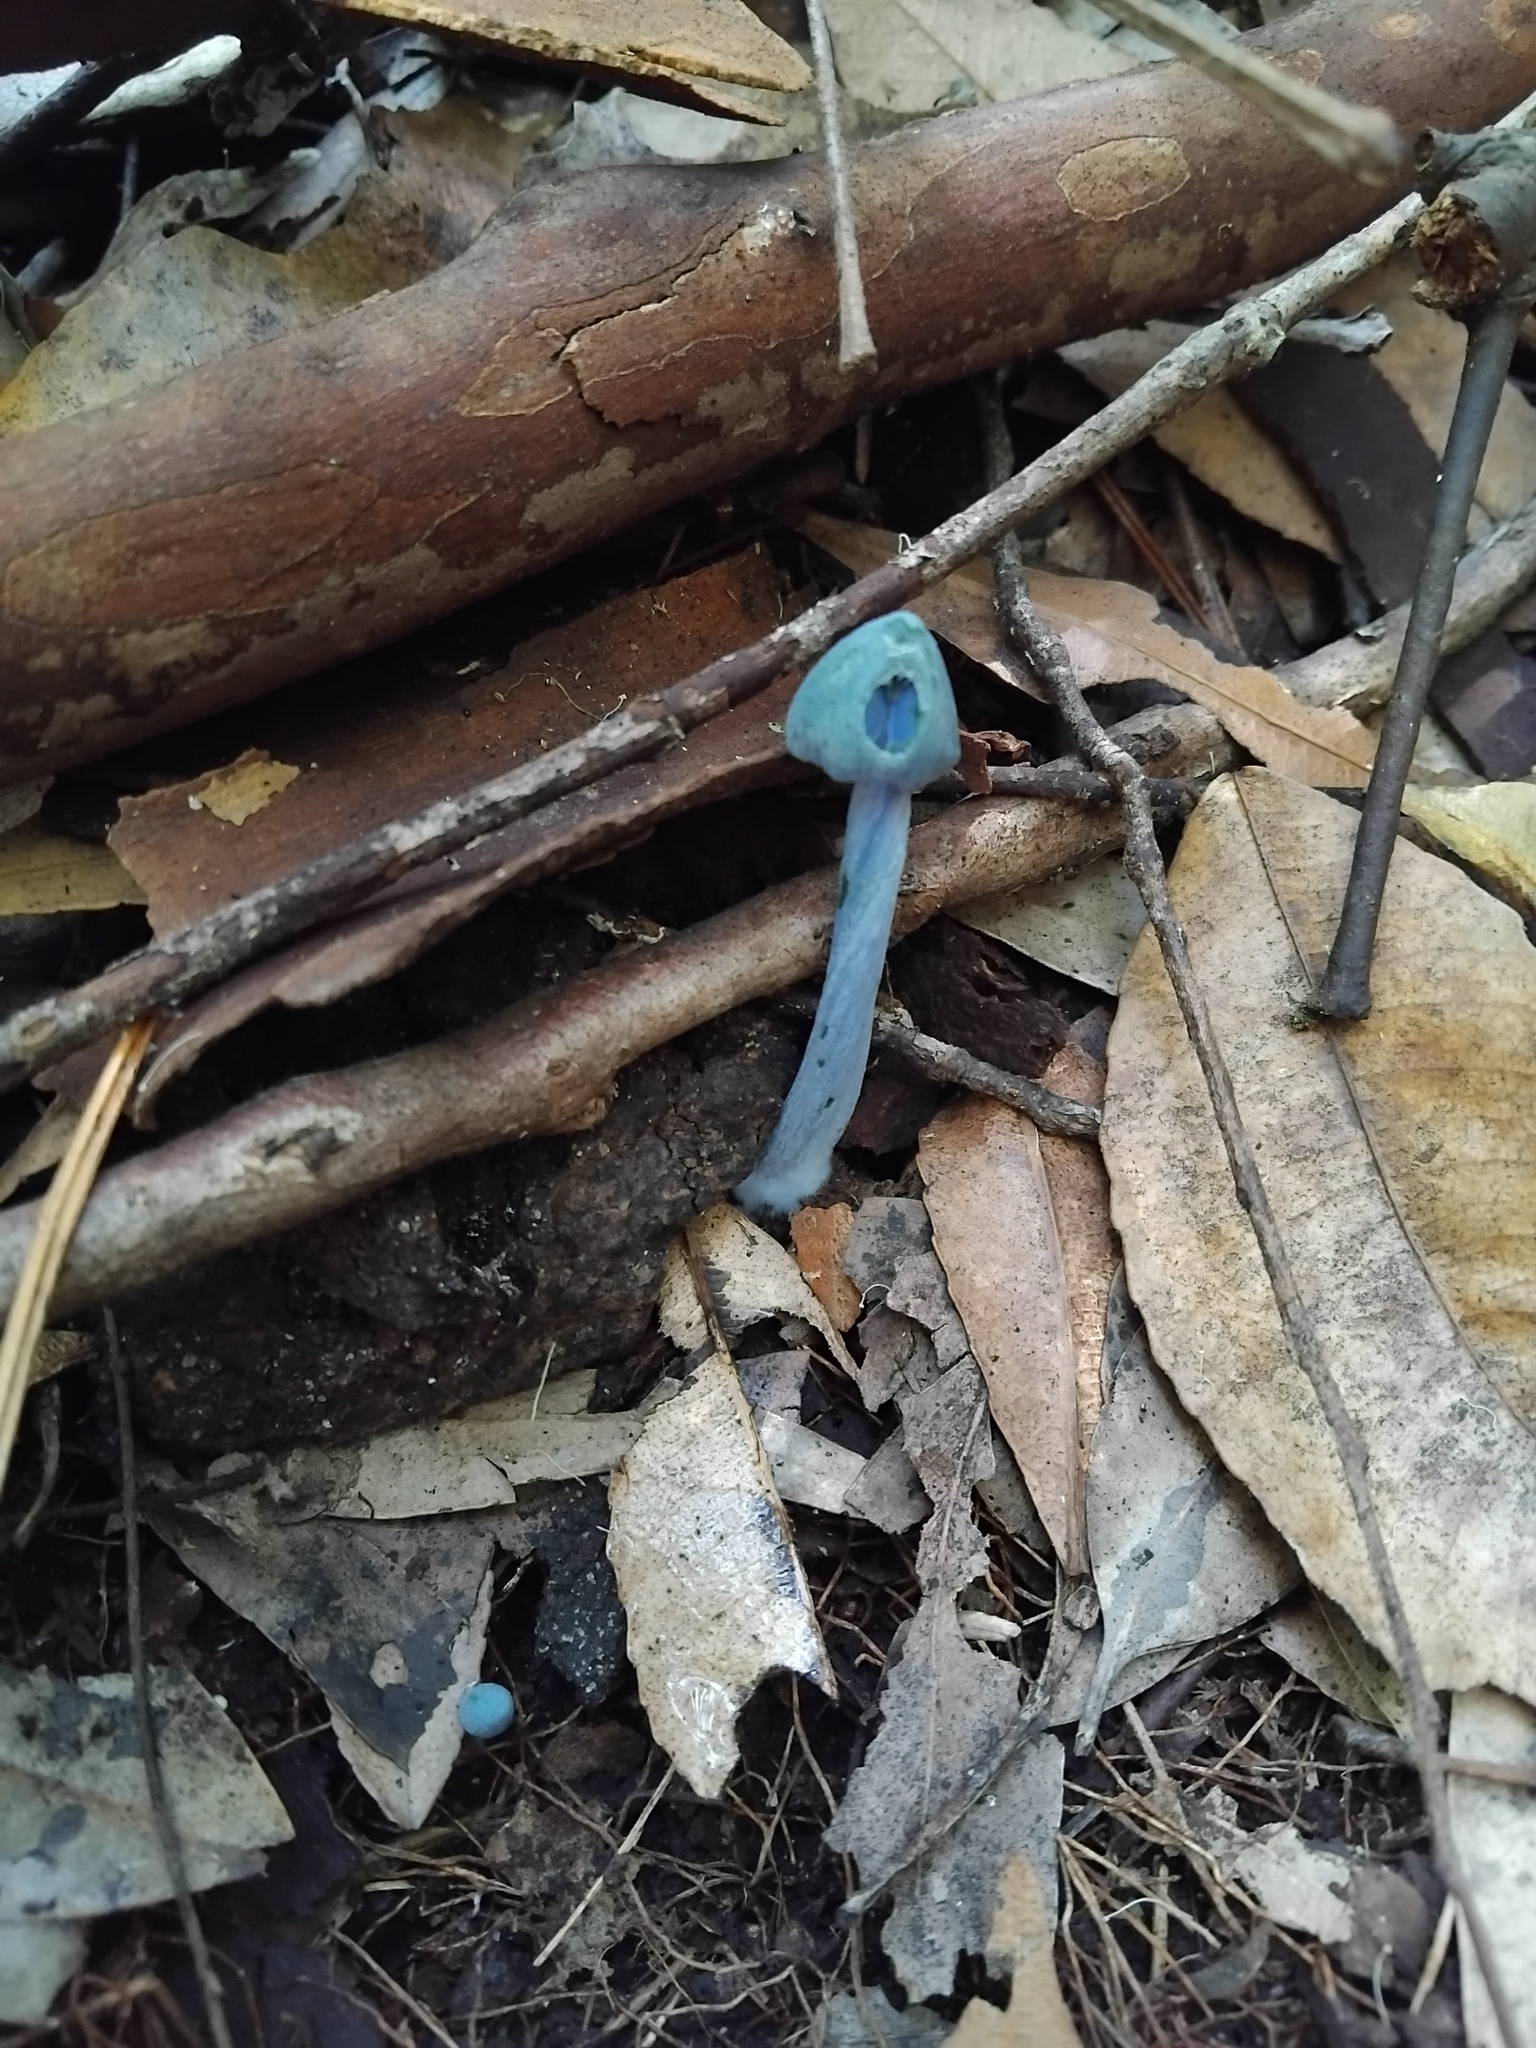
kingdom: Fungi
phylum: Basidiomycota
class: Agaricomycetes
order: Agaricales
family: Entolomataceae
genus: Entoloma
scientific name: Entoloma virescens
